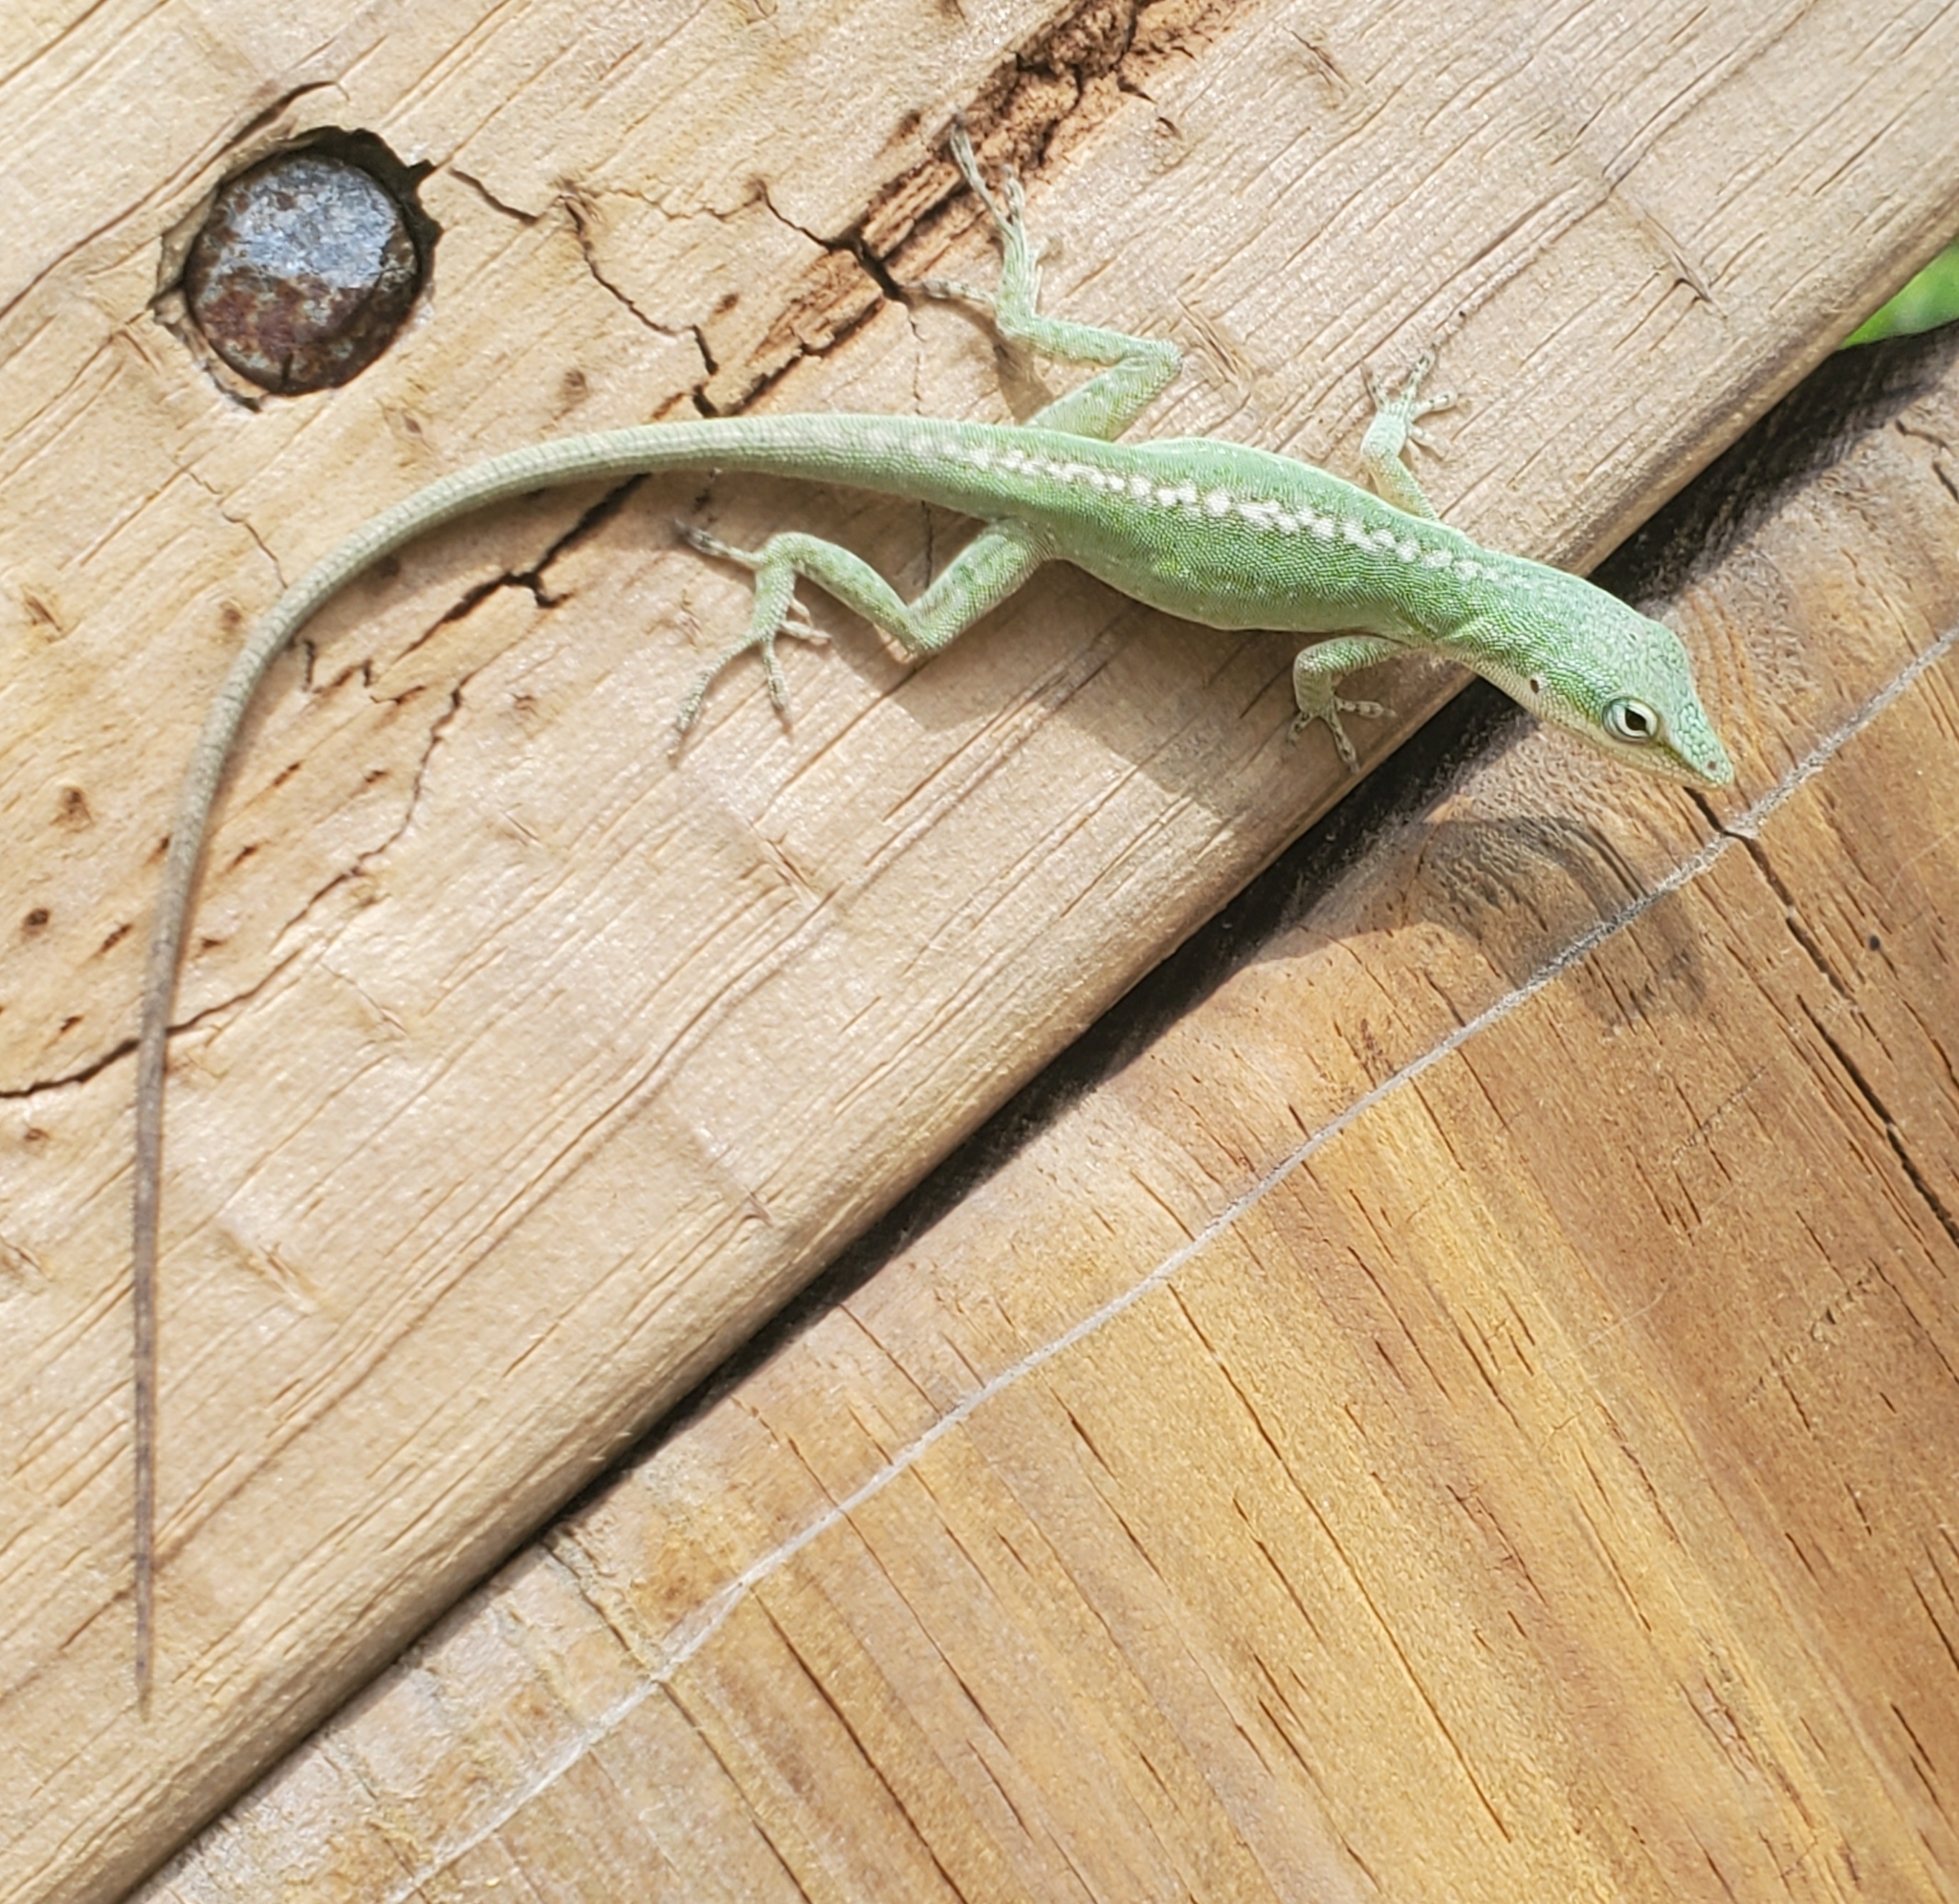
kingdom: Animalia
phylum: Chordata
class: Squamata
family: Dactyloidae
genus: Anolis
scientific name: Anolis carolinensis
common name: Green anole
